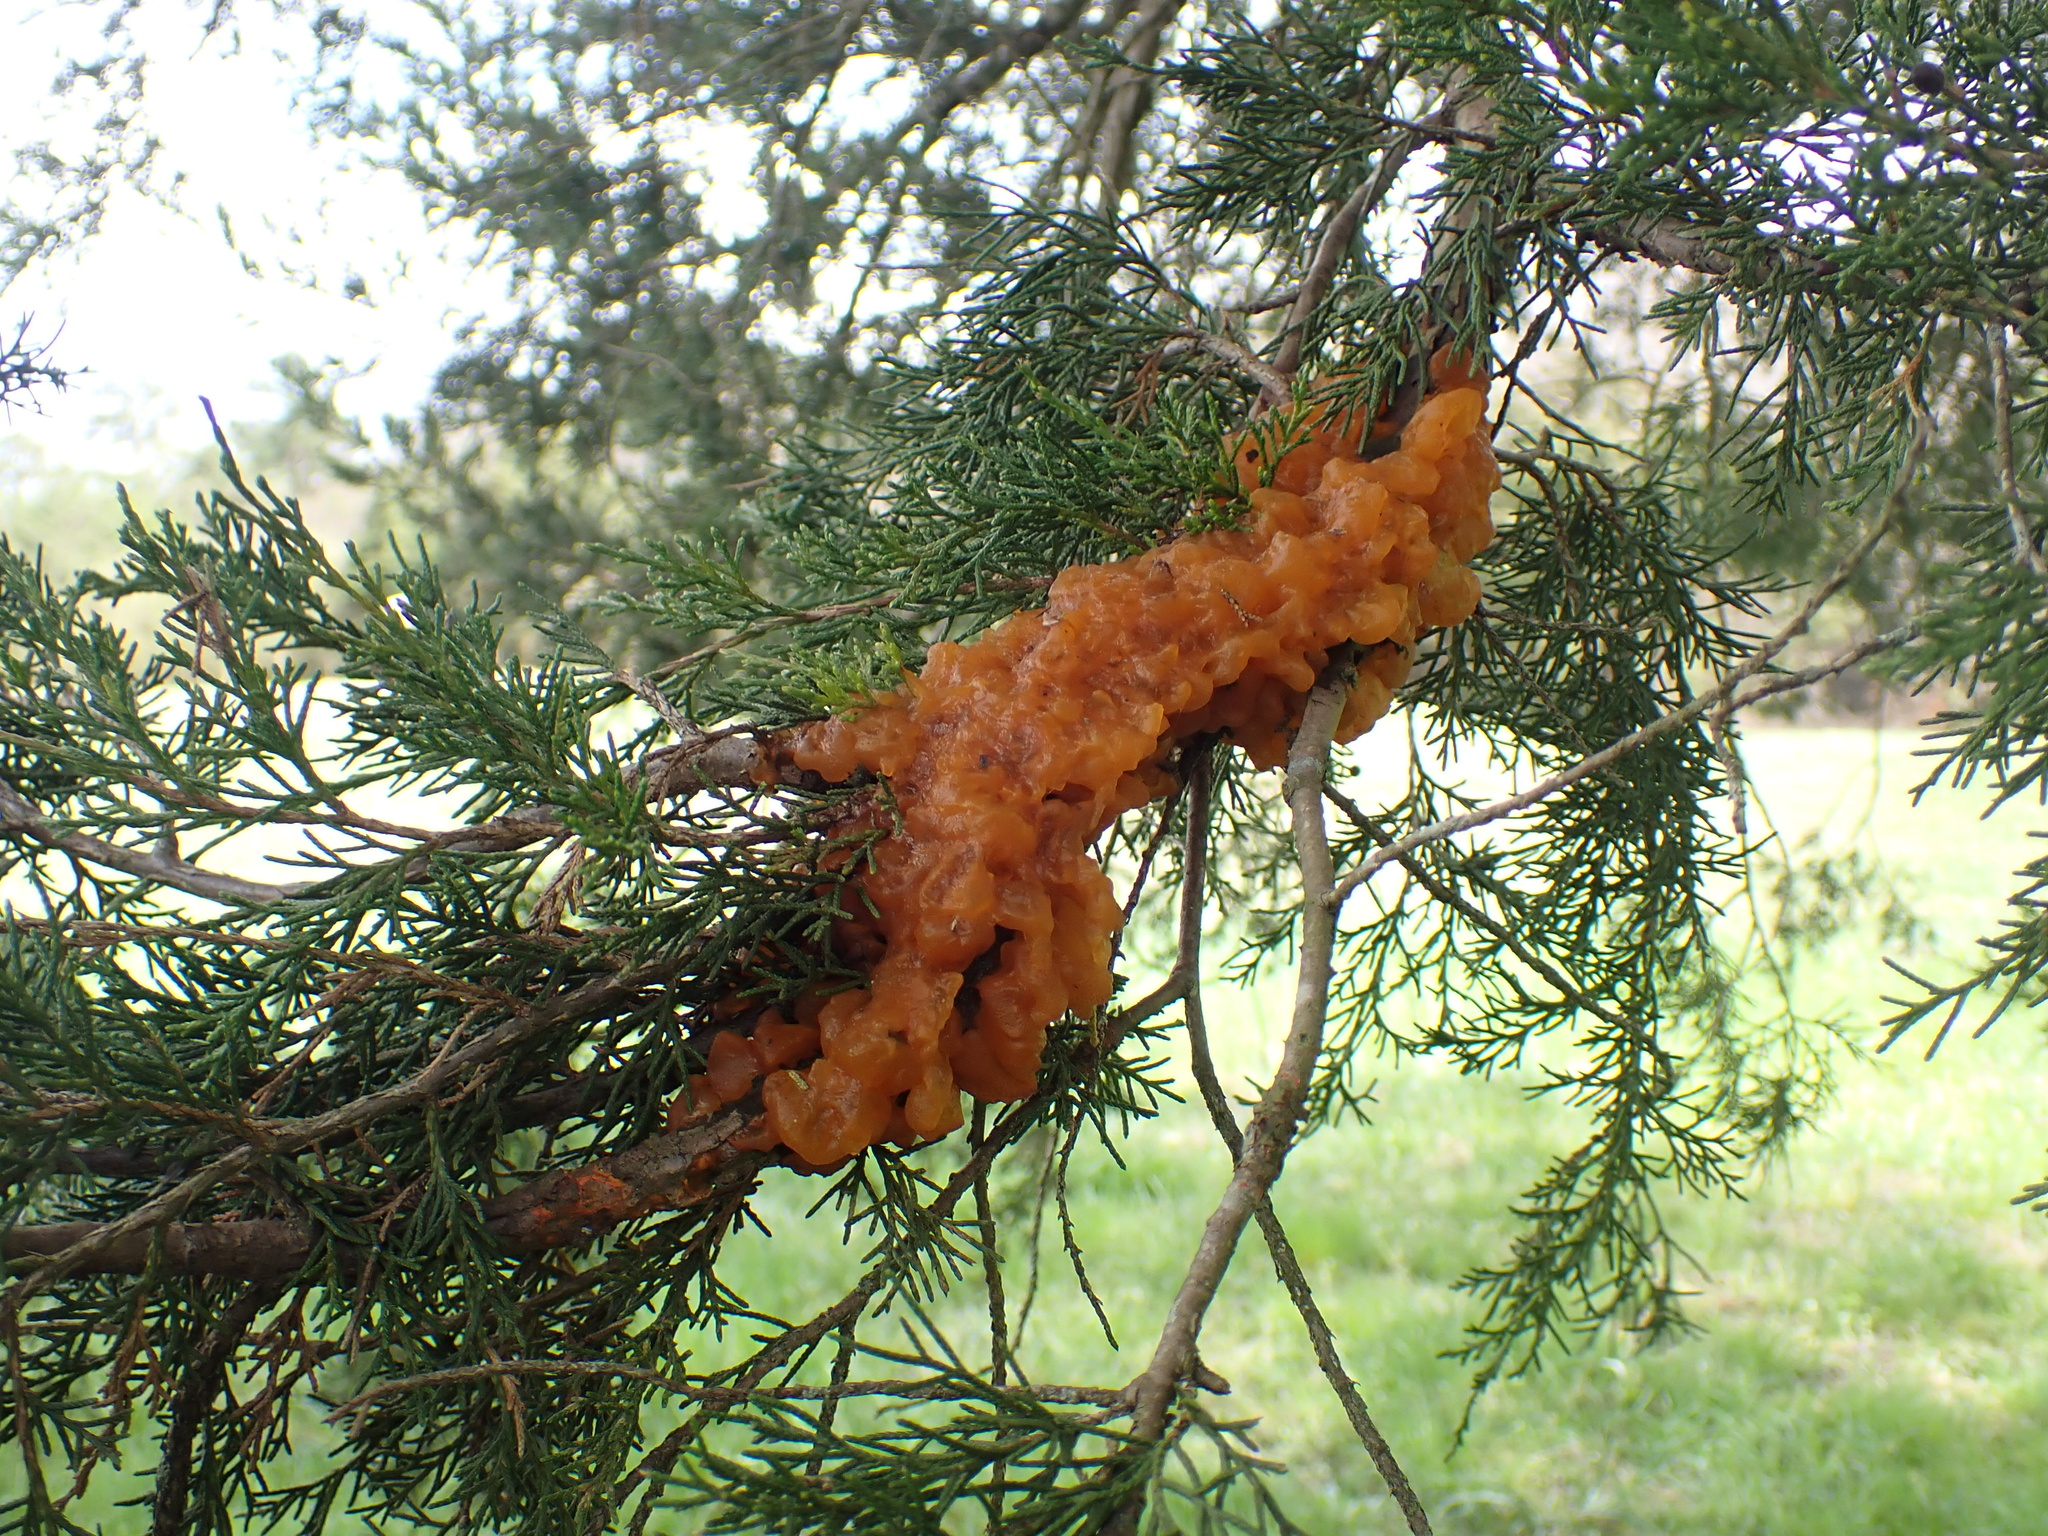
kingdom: Fungi
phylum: Basidiomycota
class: Pucciniomycetes
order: Pucciniales
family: Gymnosporangiaceae
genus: Gymnosporangium
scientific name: Gymnosporangium juniperi-virginianae
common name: Juniper-apple rust
